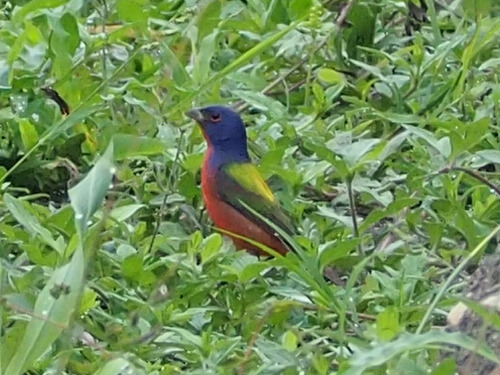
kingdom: Animalia
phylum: Chordata
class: Aves
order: Passeriformes
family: Cardinalidae
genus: Passerina
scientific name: Passerina ciris
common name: Painted bunting
